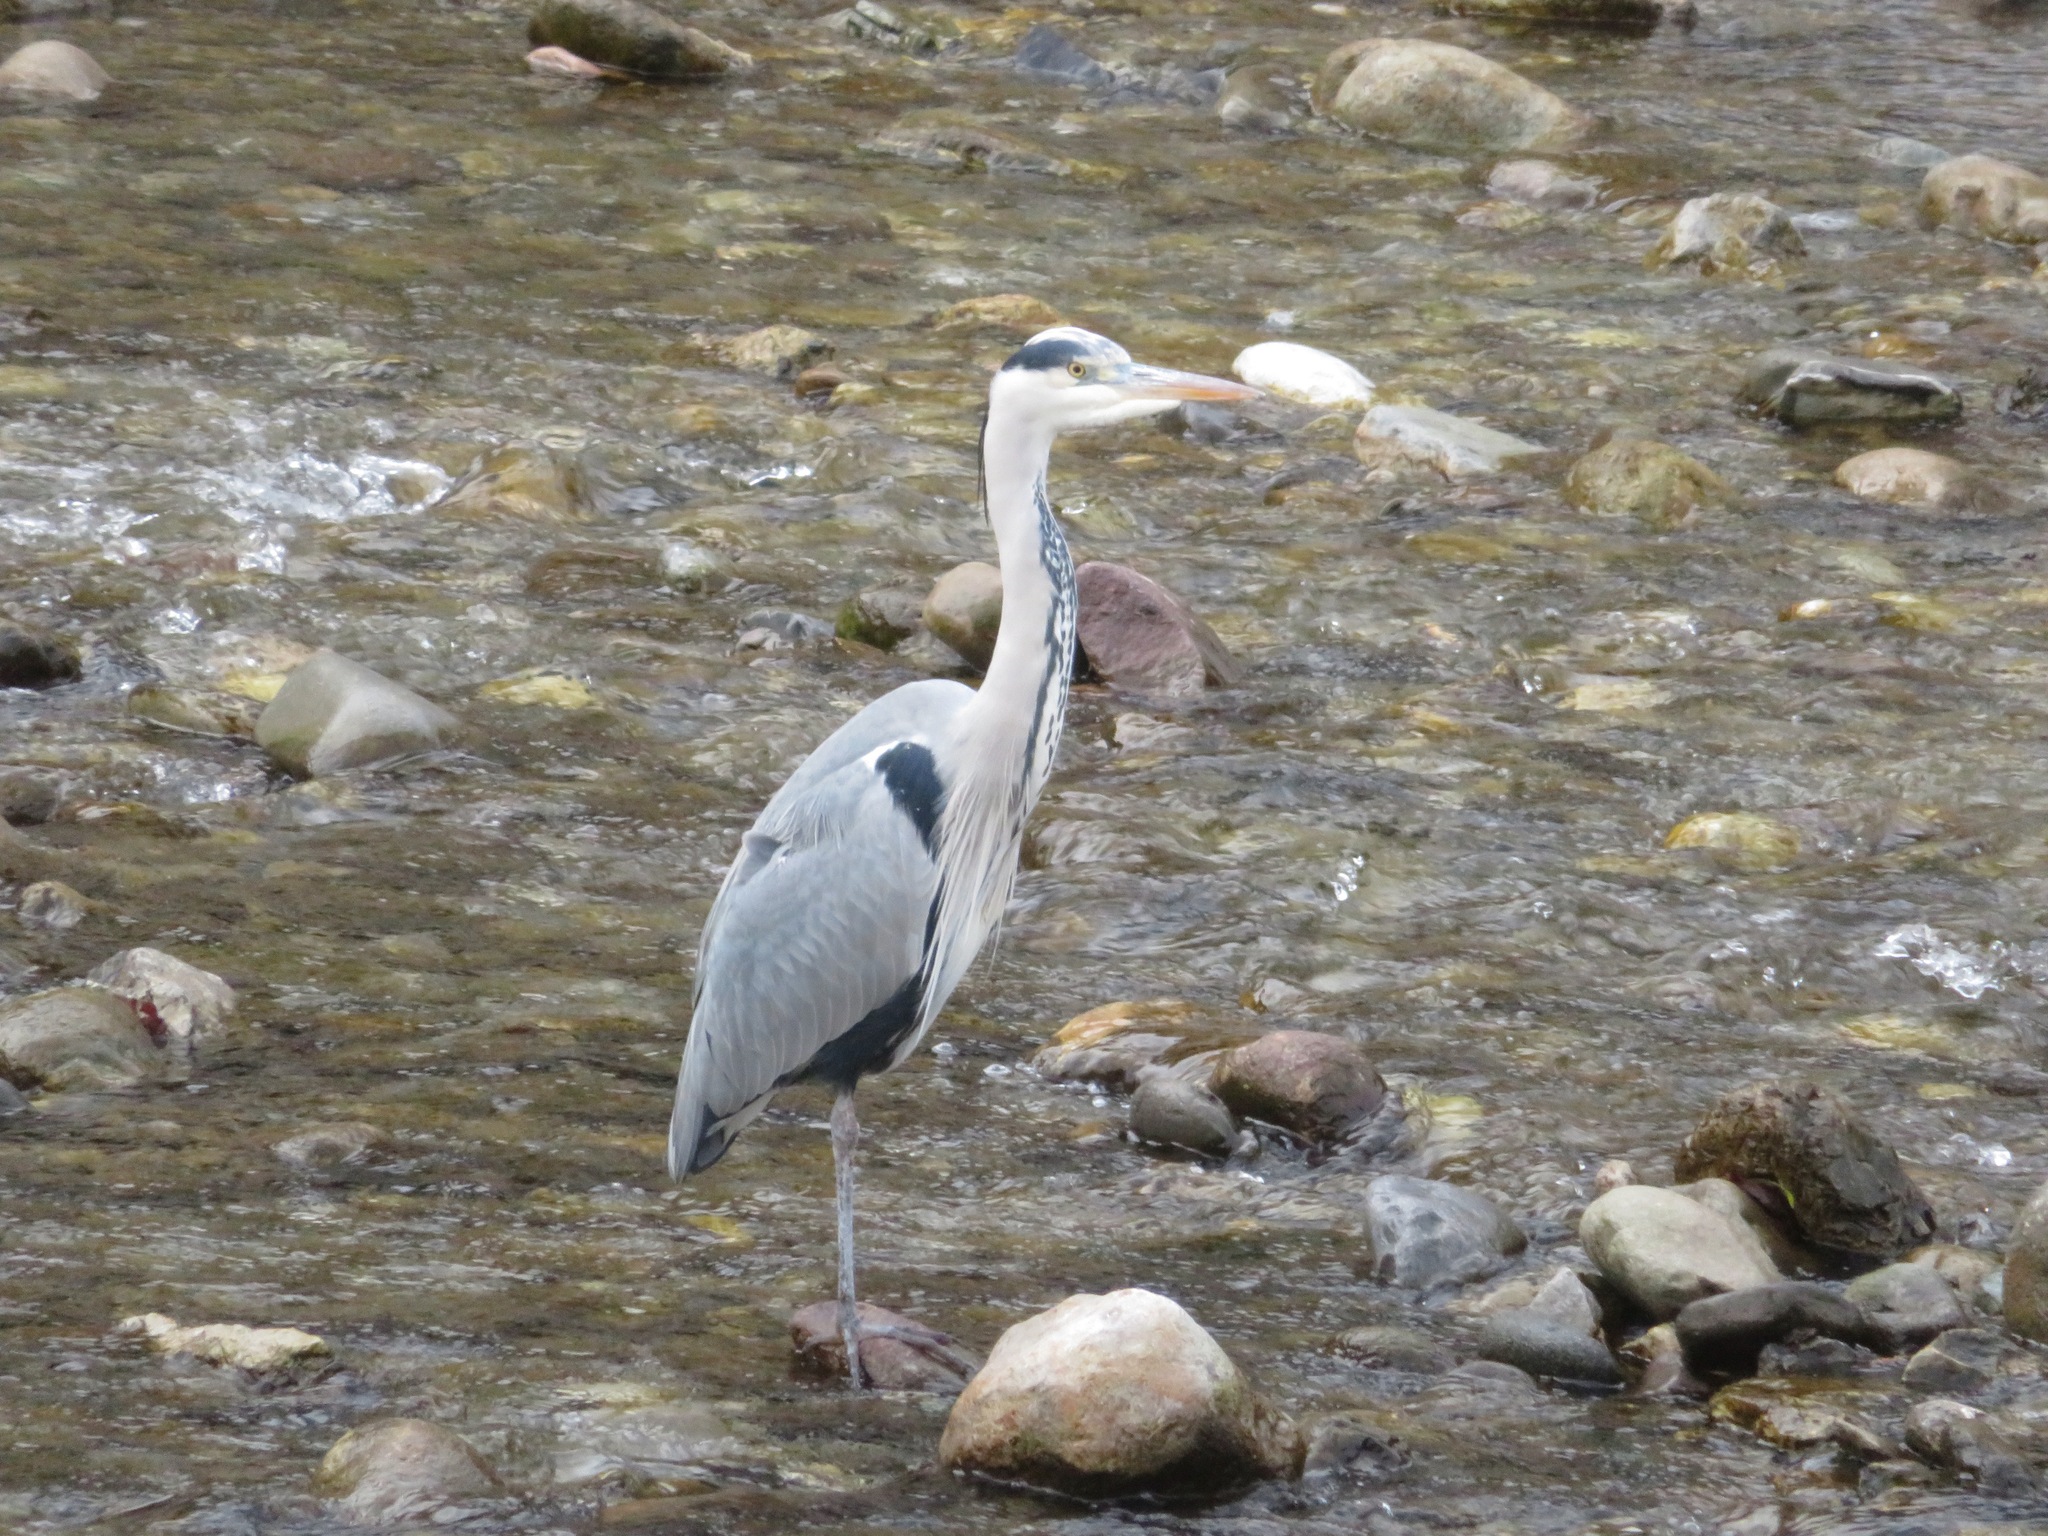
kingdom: Animalia
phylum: Chordata
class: Aves
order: Pelecaniformes
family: Ardeidae
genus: Ardea
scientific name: Ardea cinerea
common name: Grey heron
